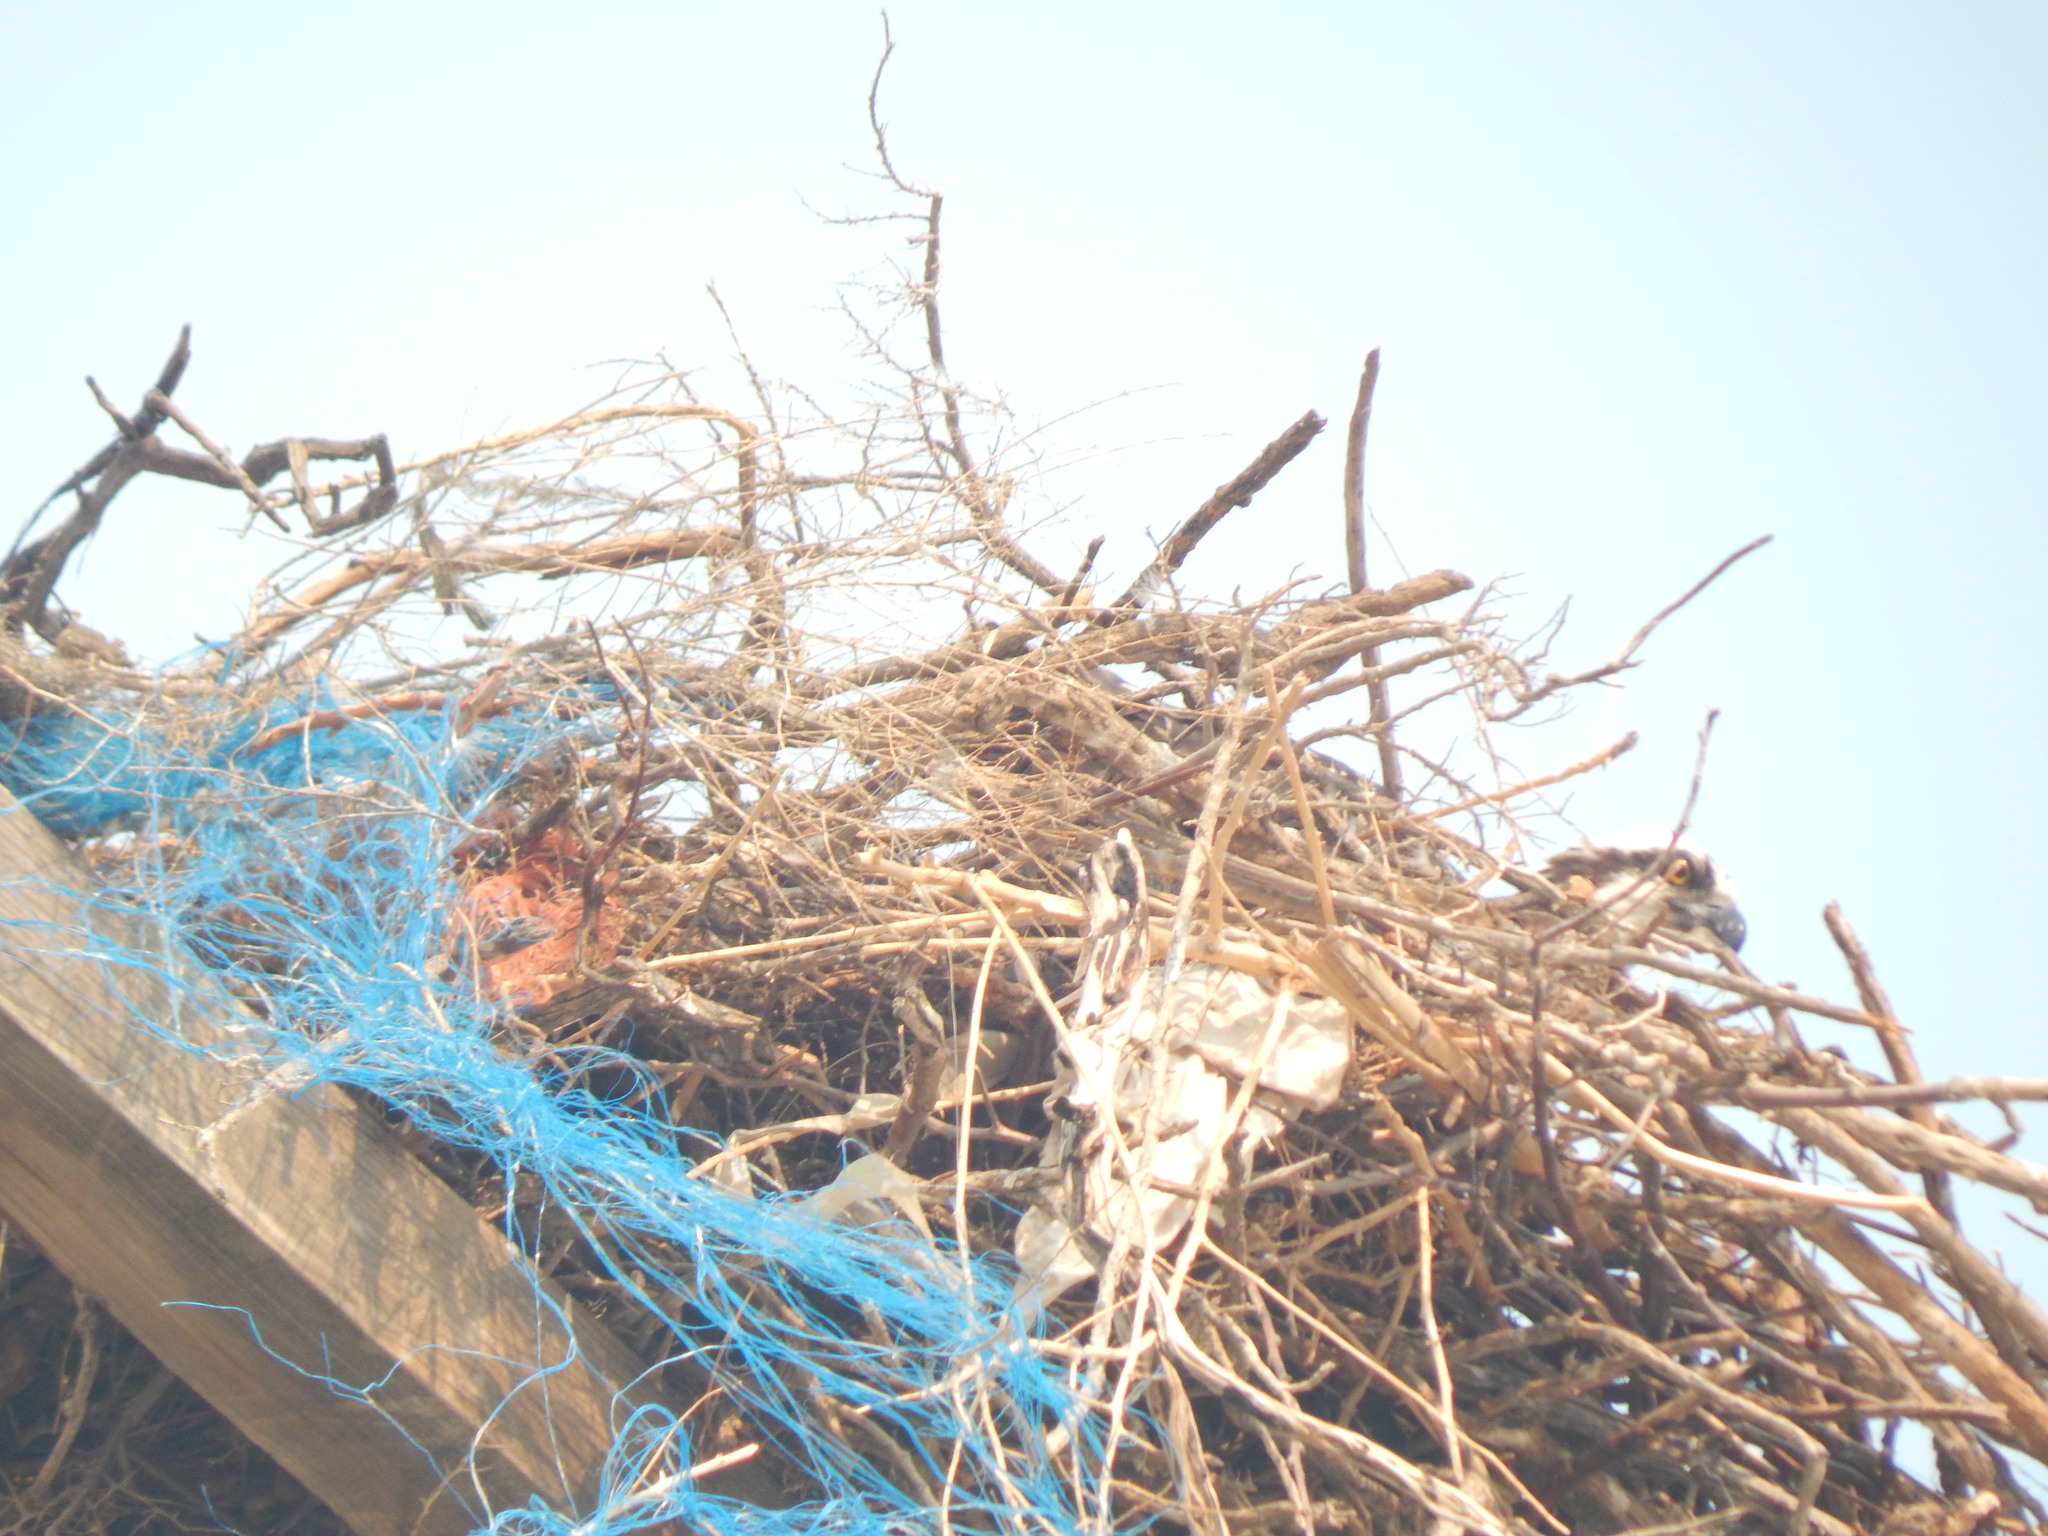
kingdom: Animalia
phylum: Chordata
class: Aves
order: Accipitriformes
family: Pandionidae
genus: Pandion
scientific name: Pandion haliaetus
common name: Osprey
